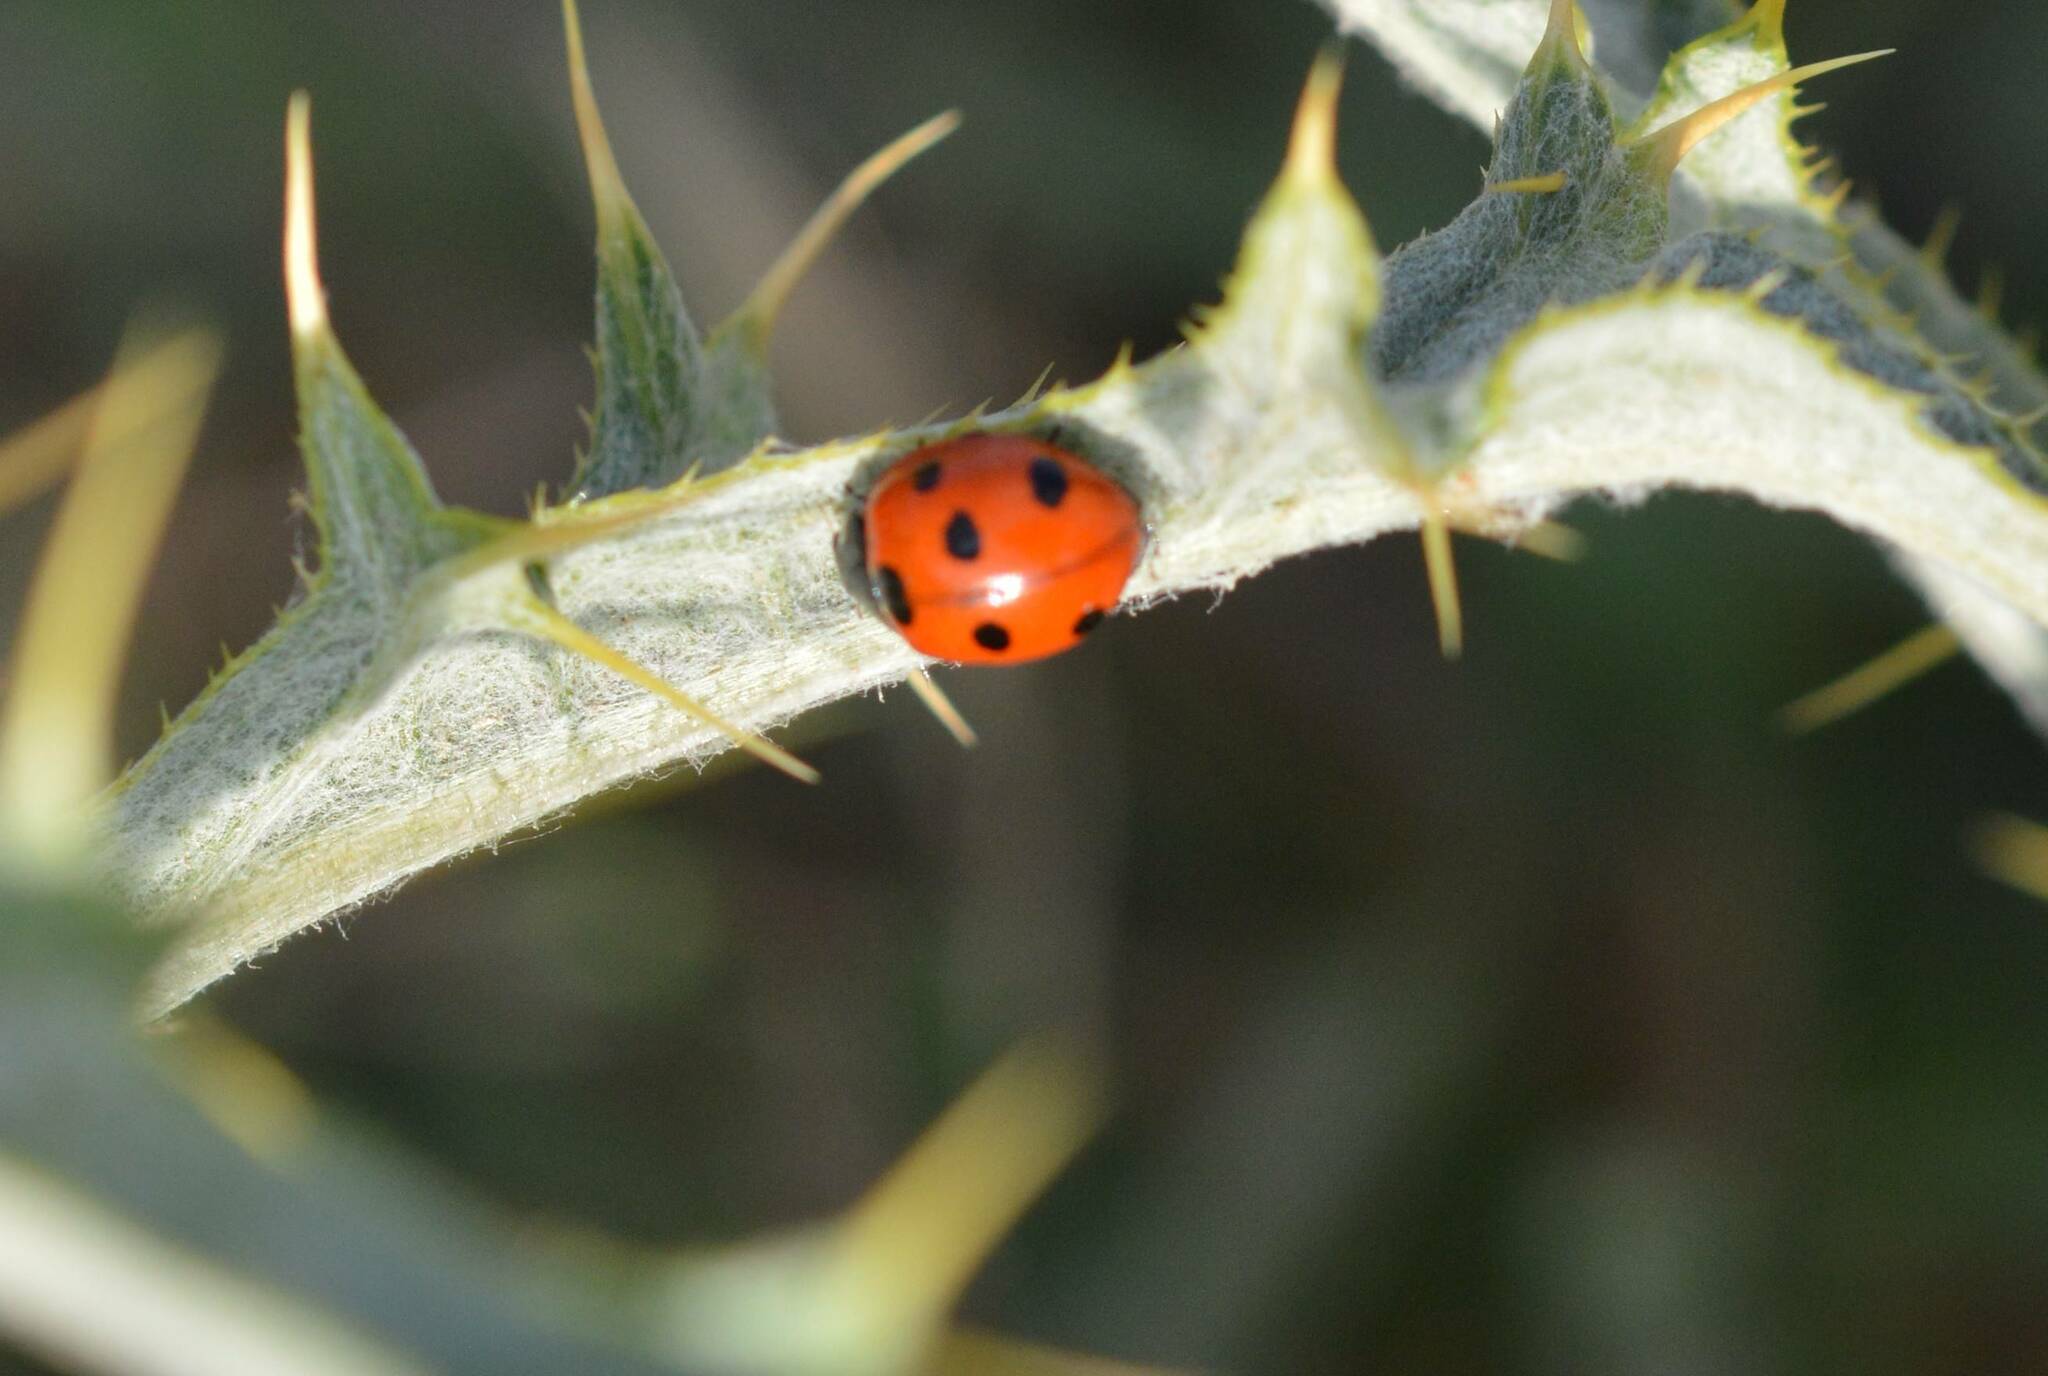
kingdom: Animalia
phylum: Arthropoda
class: Insecta
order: Coleoptera
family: Coccinellidae
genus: Coccinella
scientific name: Coccinella algerica
